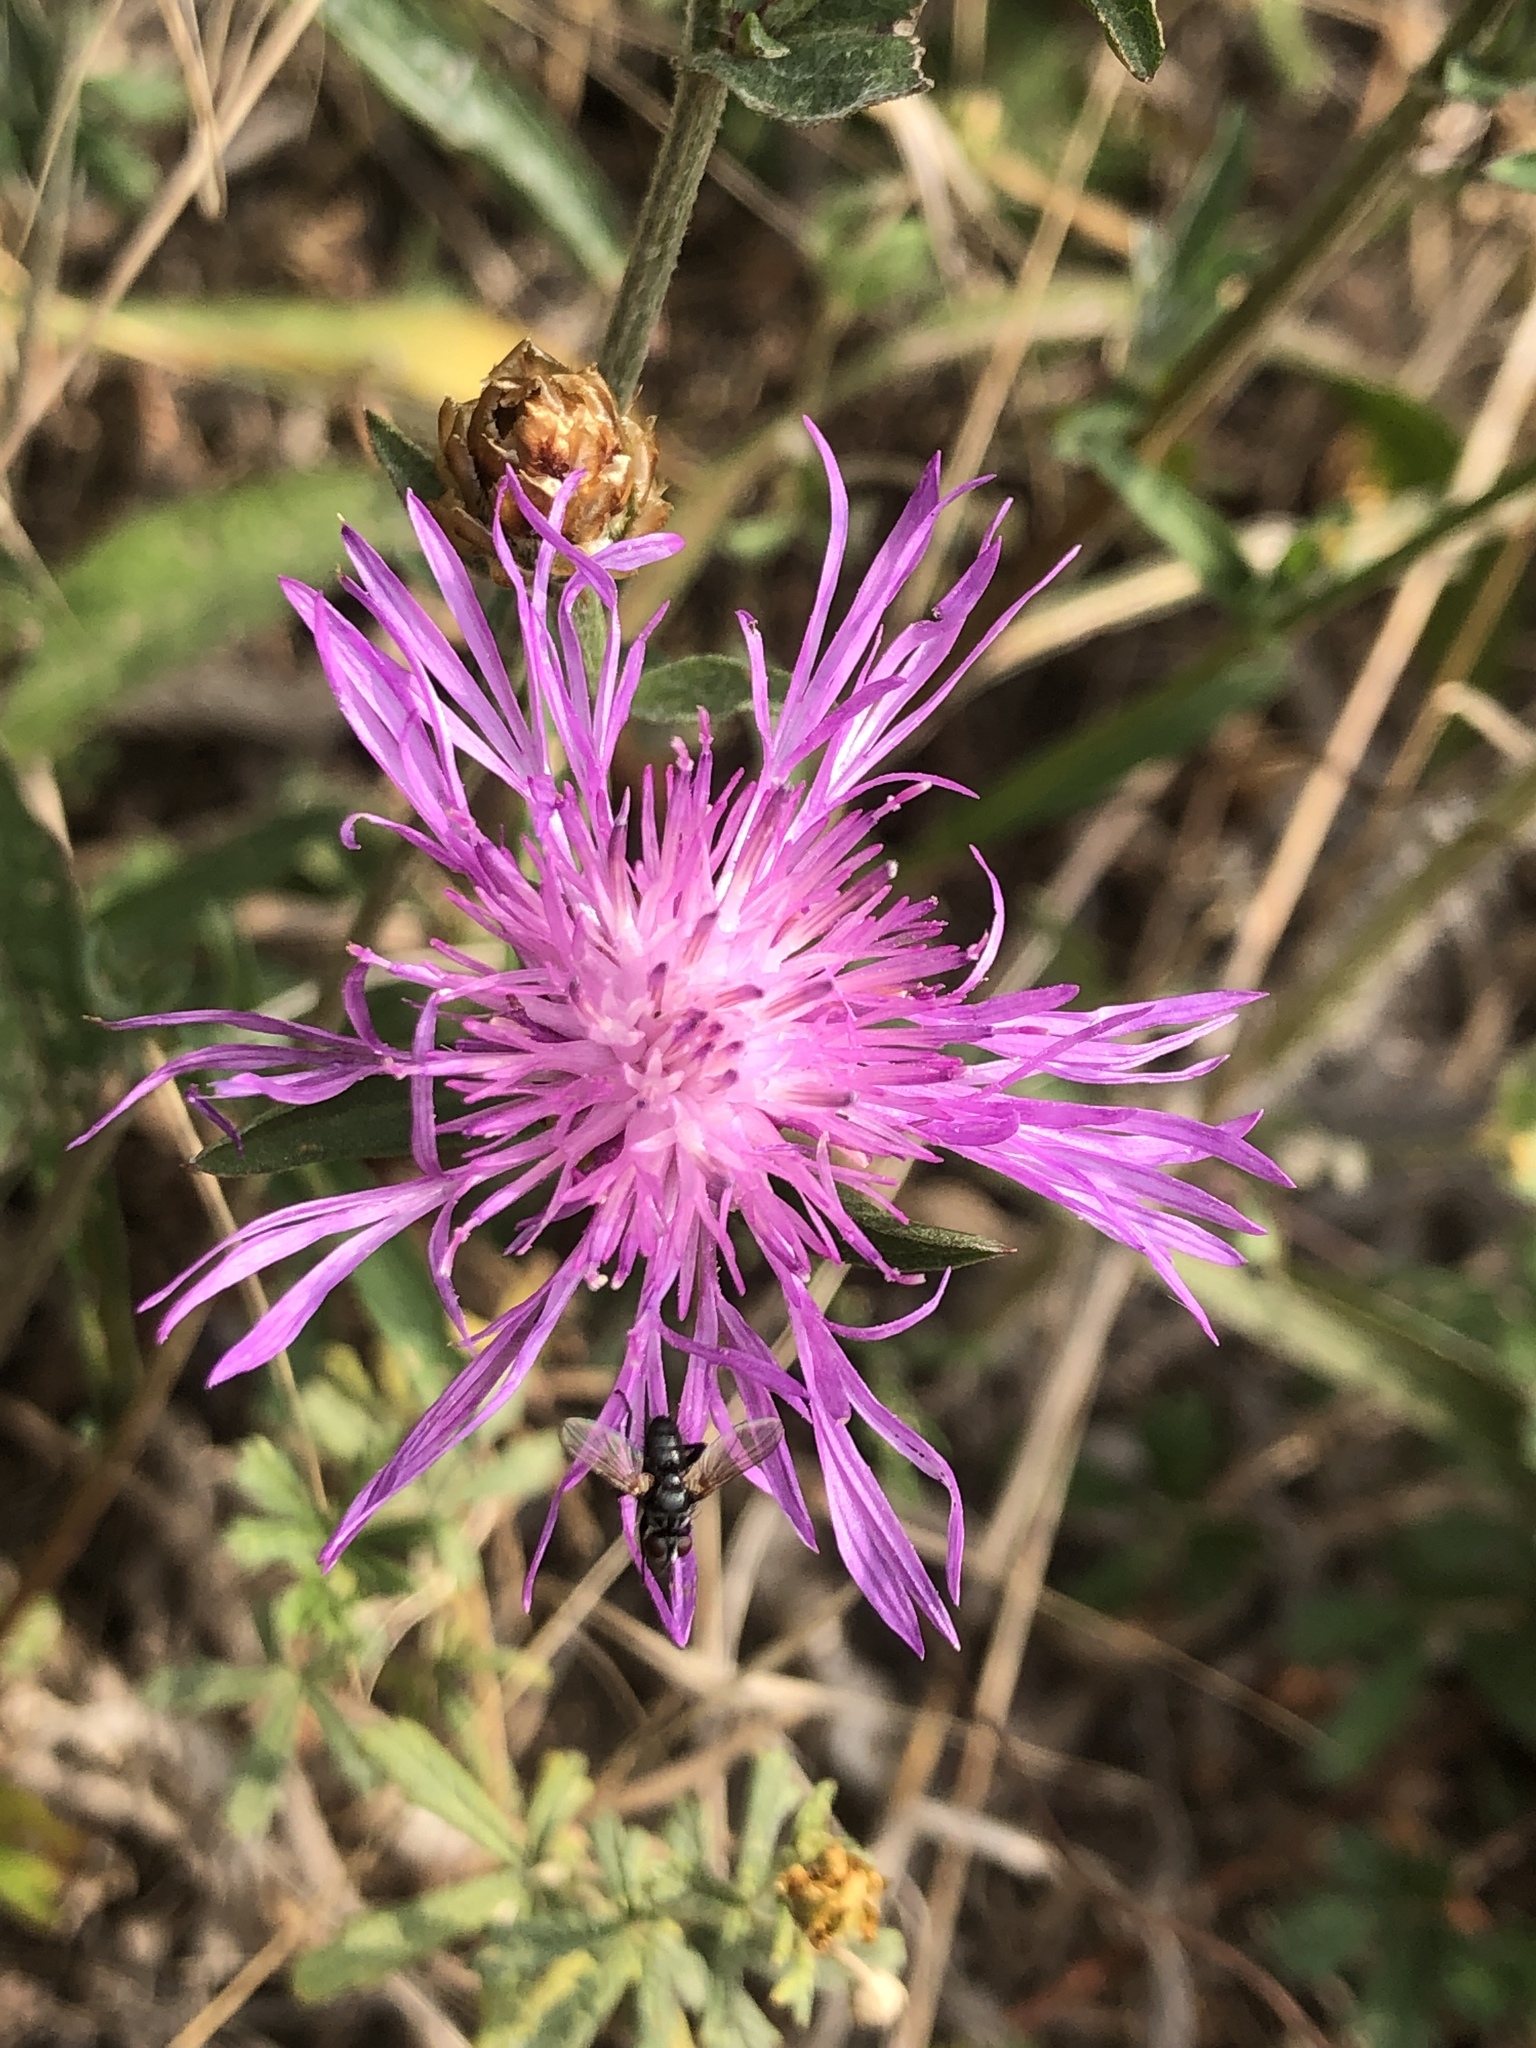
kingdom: Plantae
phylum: Tracheophyta
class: Magnoliopsida
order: Asterales
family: Asteraceae
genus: Centaurea
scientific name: Centaurea jacea
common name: Brown knapweed
